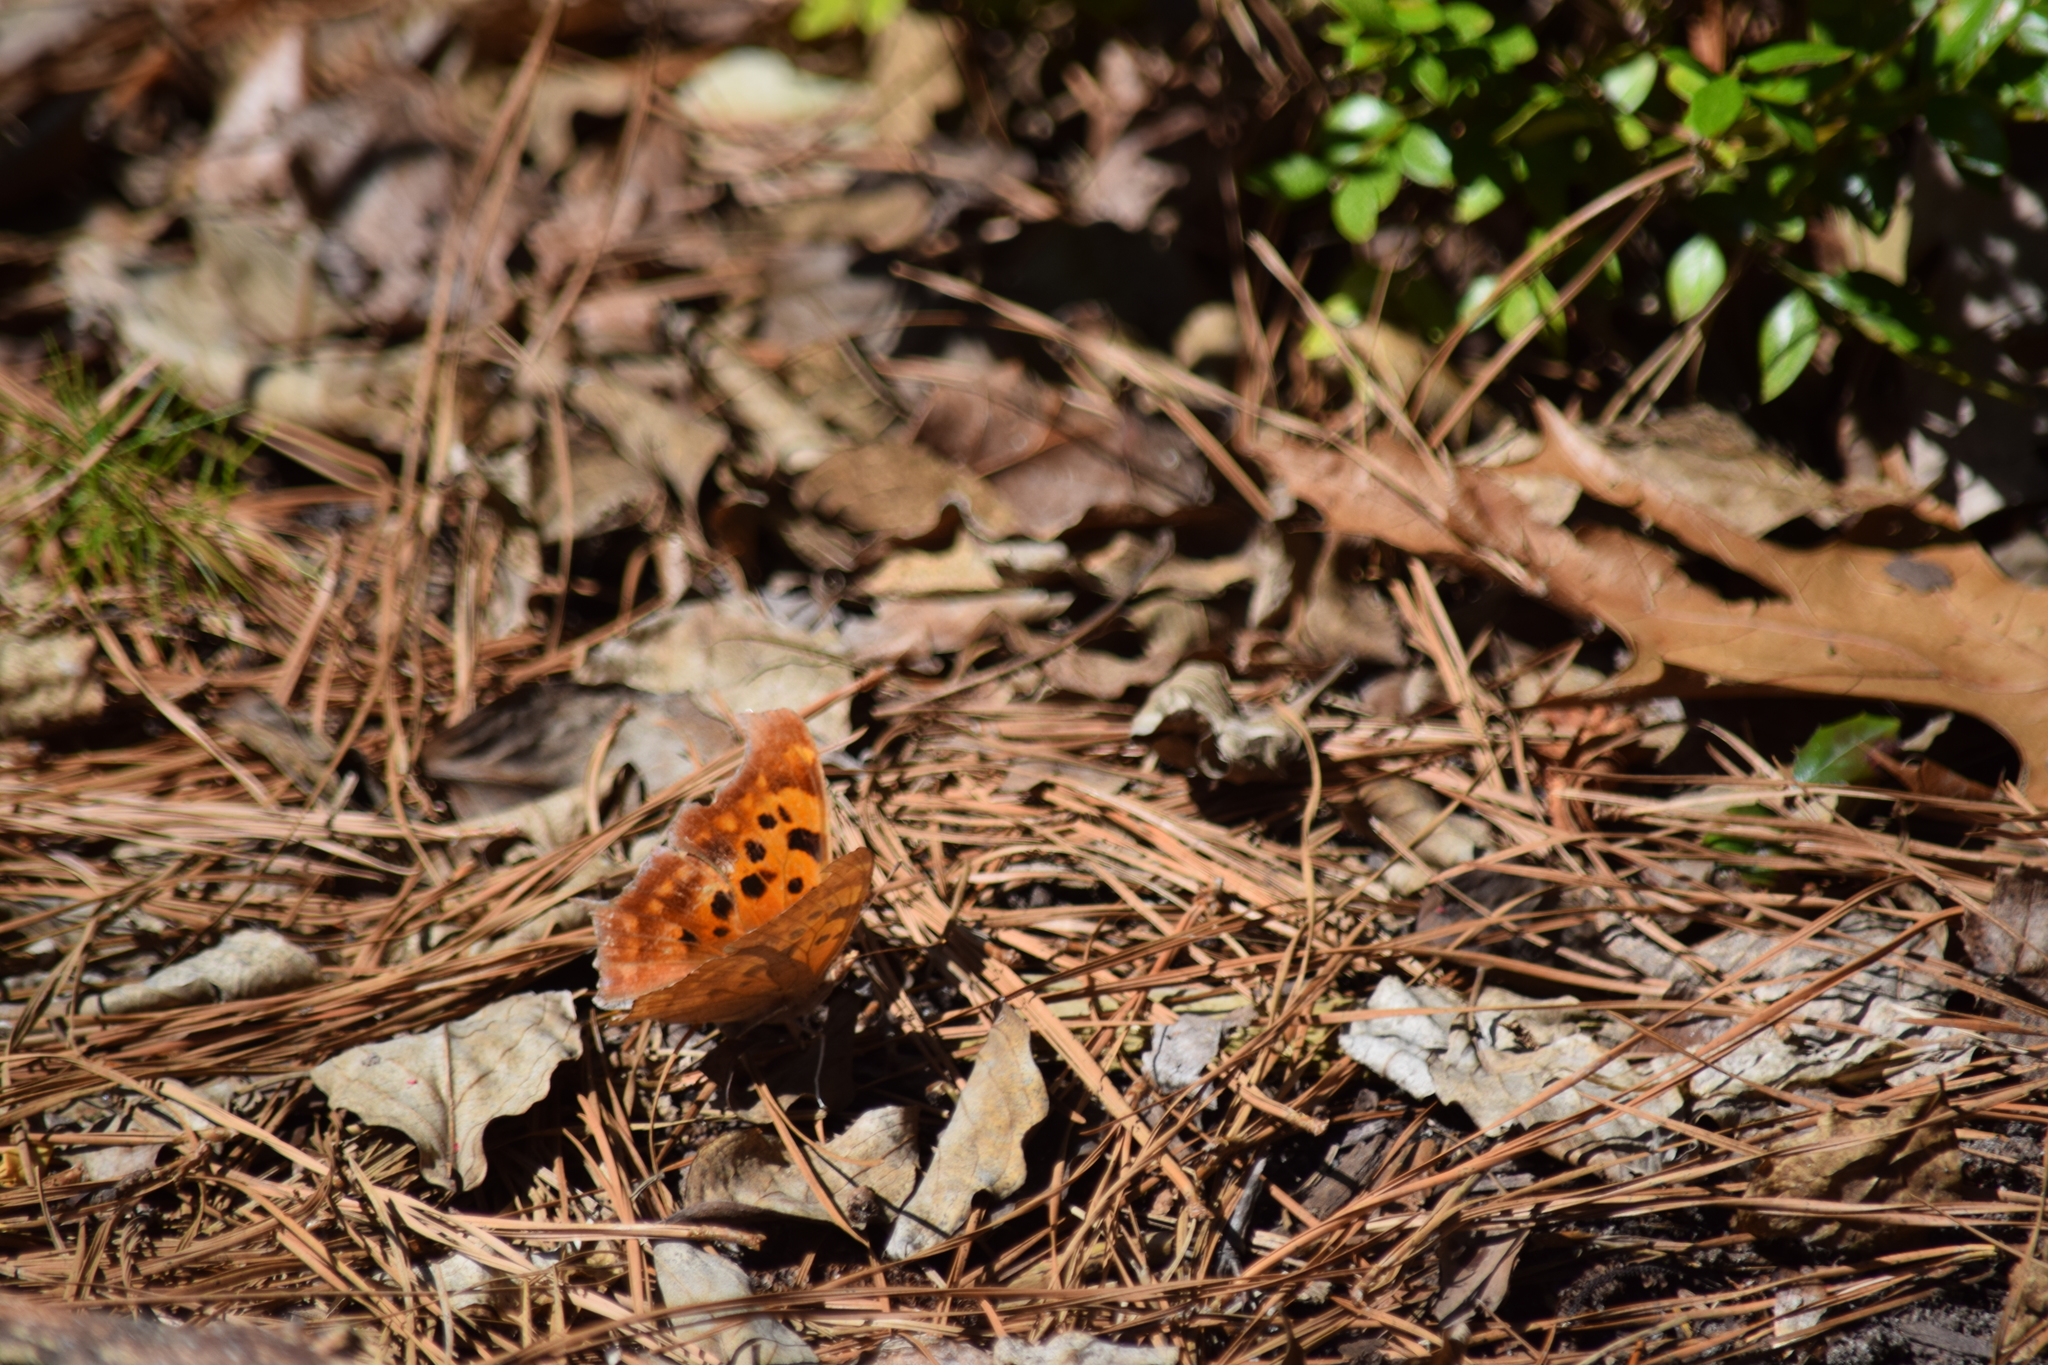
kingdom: Animalia
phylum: Arthropoda
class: Insecta
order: Lepidoptera
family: Nymphalidae
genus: Polygonia
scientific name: Polygonia interrogationis
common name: Question mark
